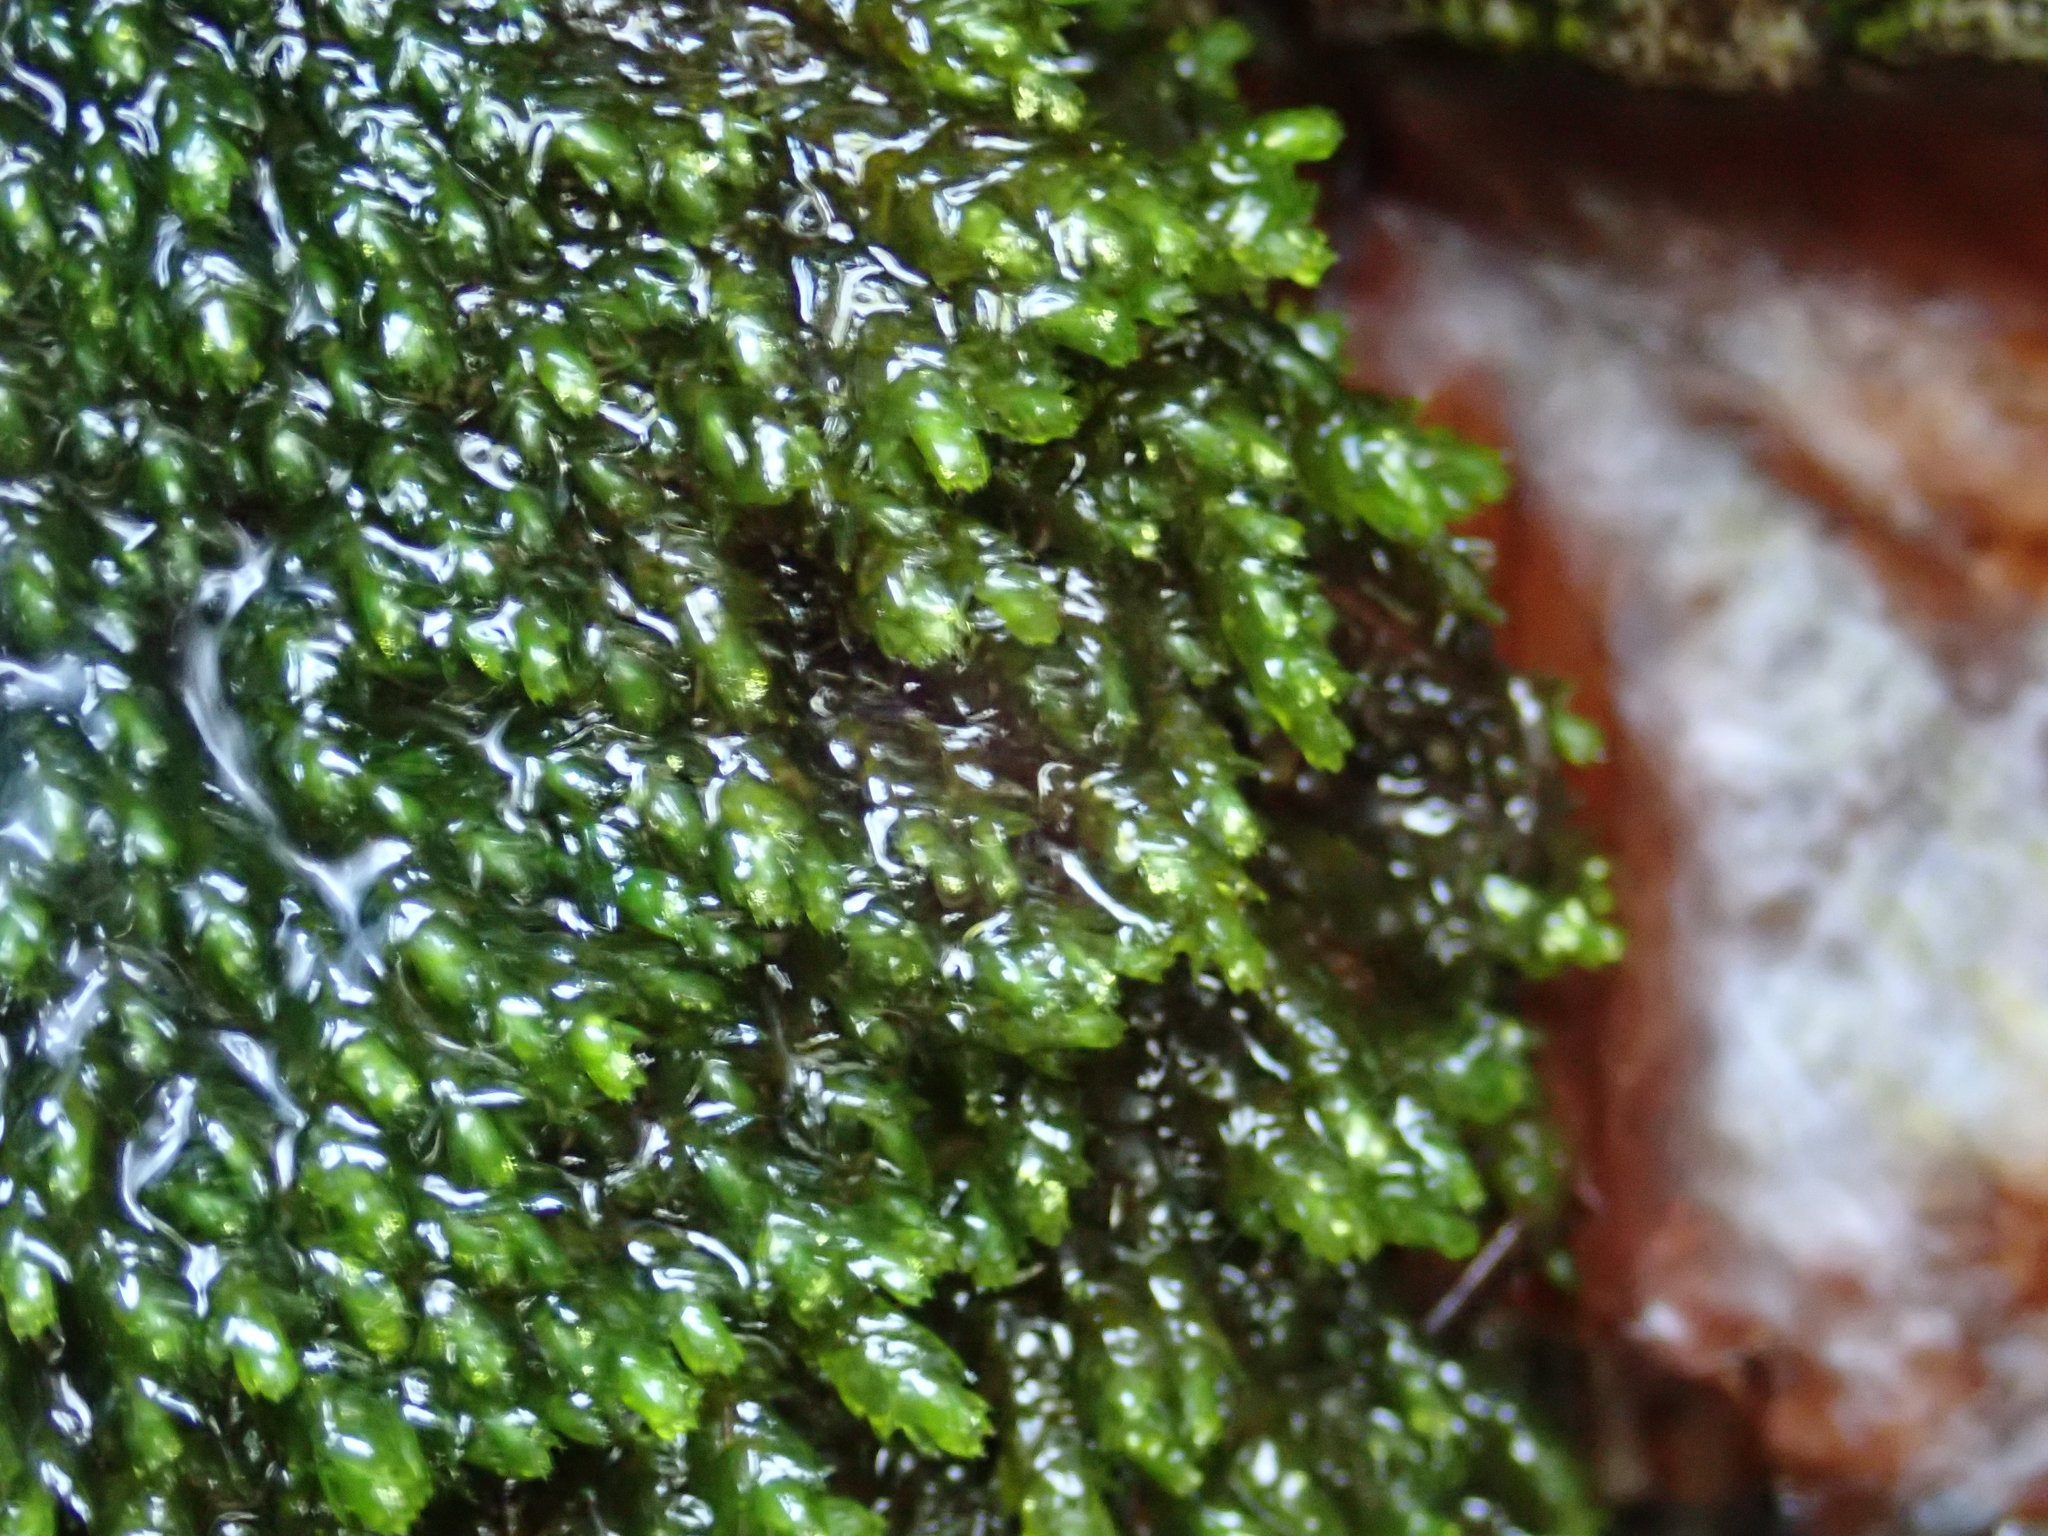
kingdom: Plantae
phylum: Bryophyta
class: Bryopsida
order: Hypnales
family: Brachytheciaceae
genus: Rhynchostegium
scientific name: Rhynchostegium riparioides
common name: Platyhypnidium moss
